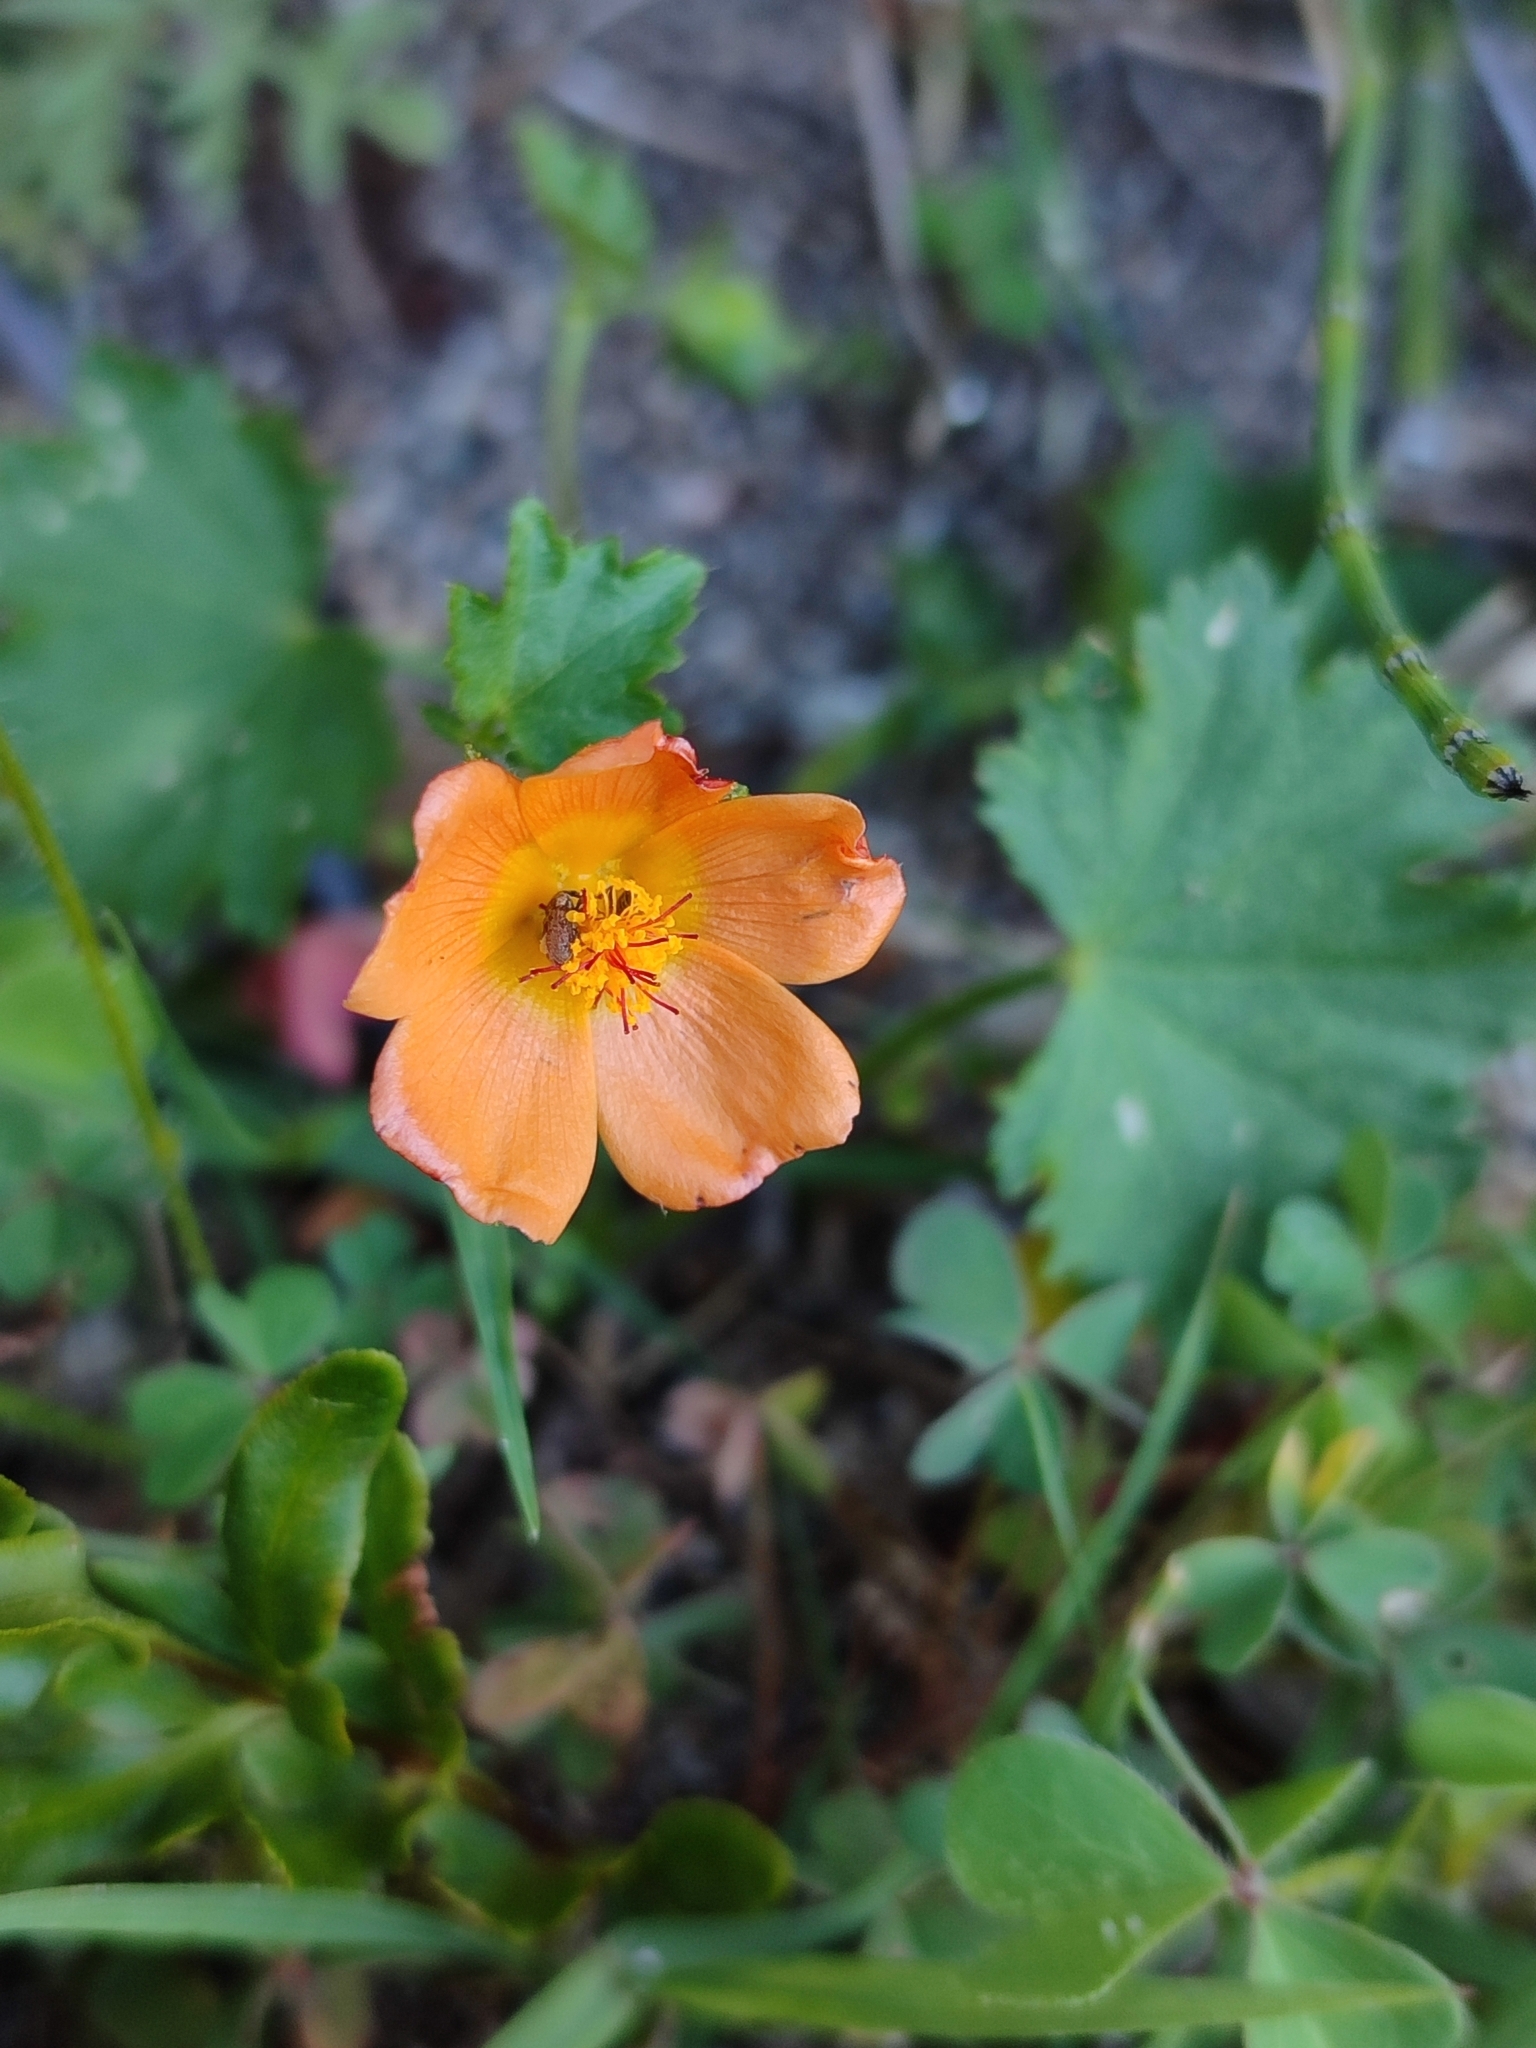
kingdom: Plantae
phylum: Tracheophyta
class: Magnoliopsida
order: Malvales
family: Malvaceae
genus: Modiolastrum
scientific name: Modiolastrum malvifolium
